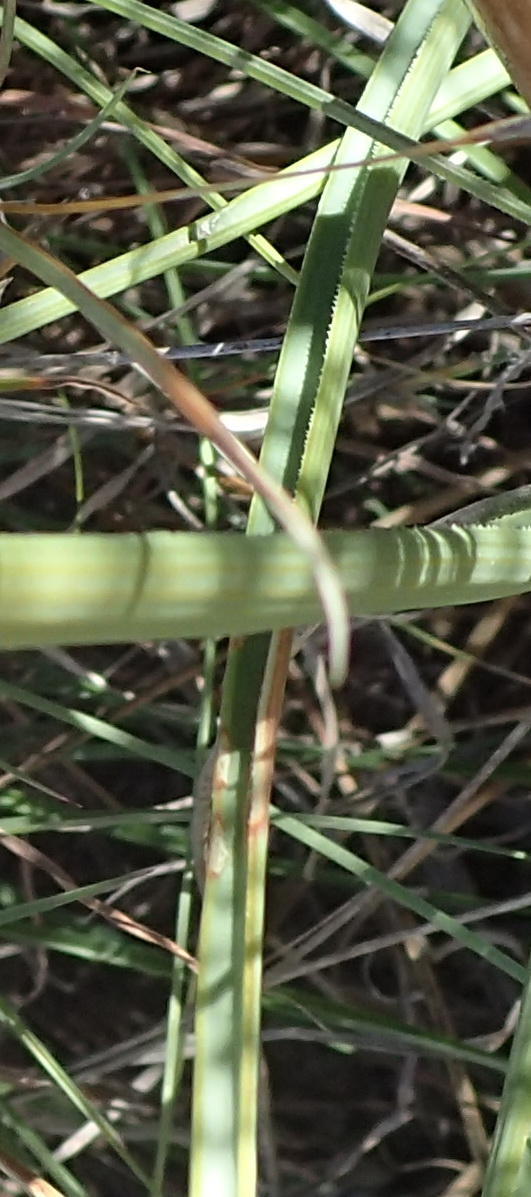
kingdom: Plantae
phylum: Tracheophyta
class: Liliopsida
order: Asparagales
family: Asphodelaceae
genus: Kniphofia
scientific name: Kniphofia stricta
